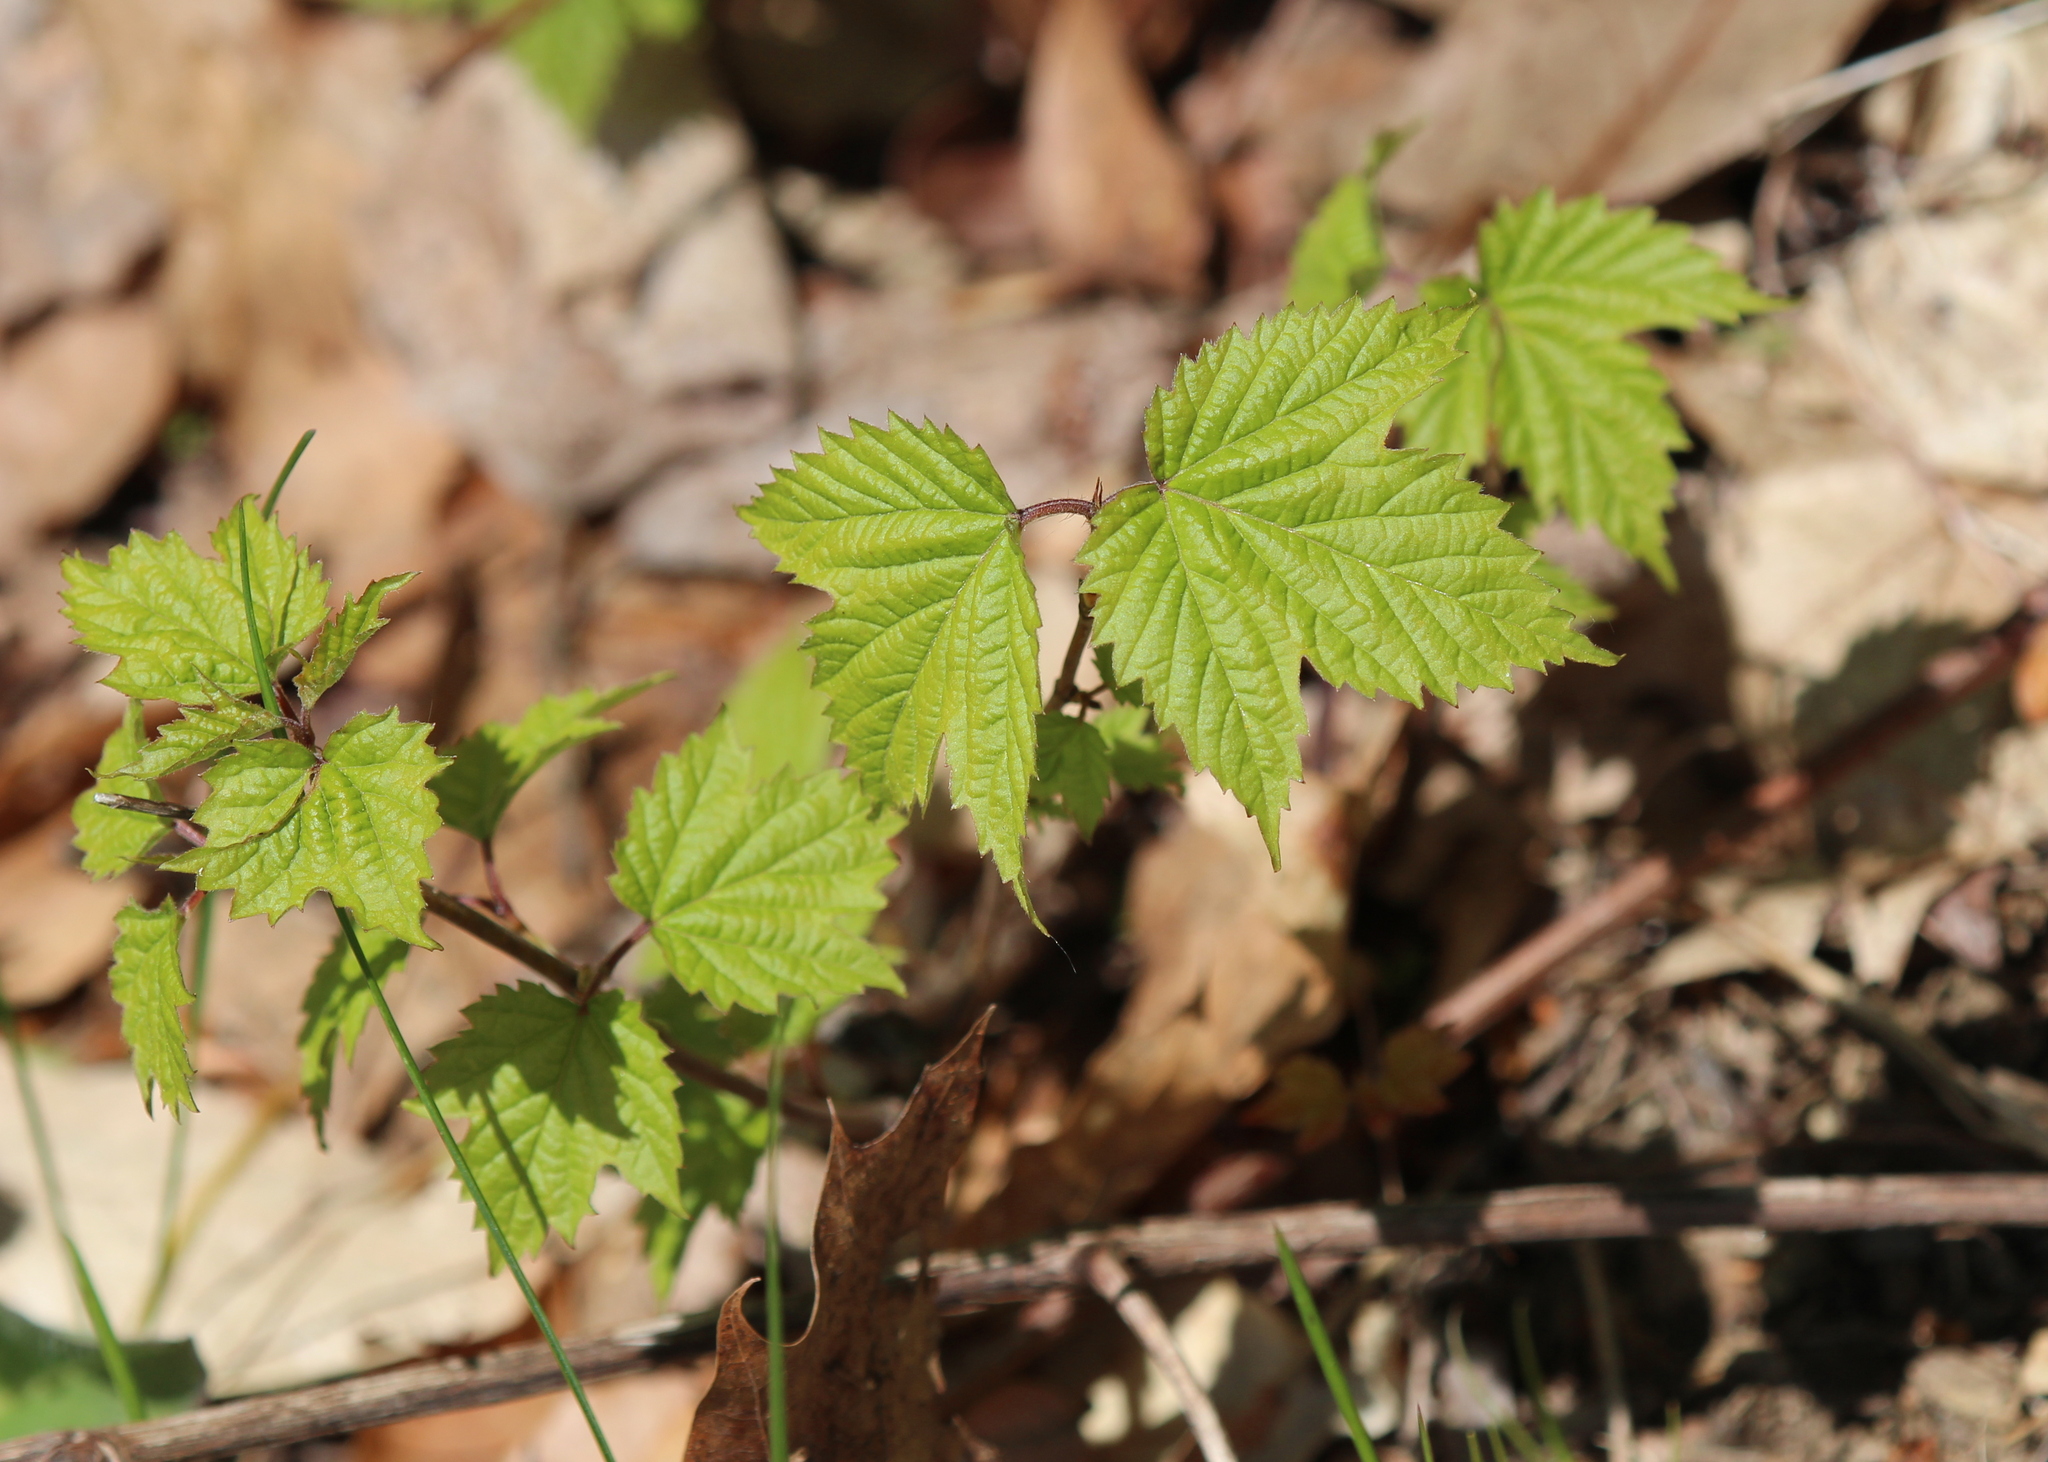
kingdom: Plantae
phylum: Tracheophyta
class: Magnoliopsida
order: Dipsacales
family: Viburnaceae
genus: Viburnum
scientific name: Viburnum acerifolium
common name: Dockmackie
